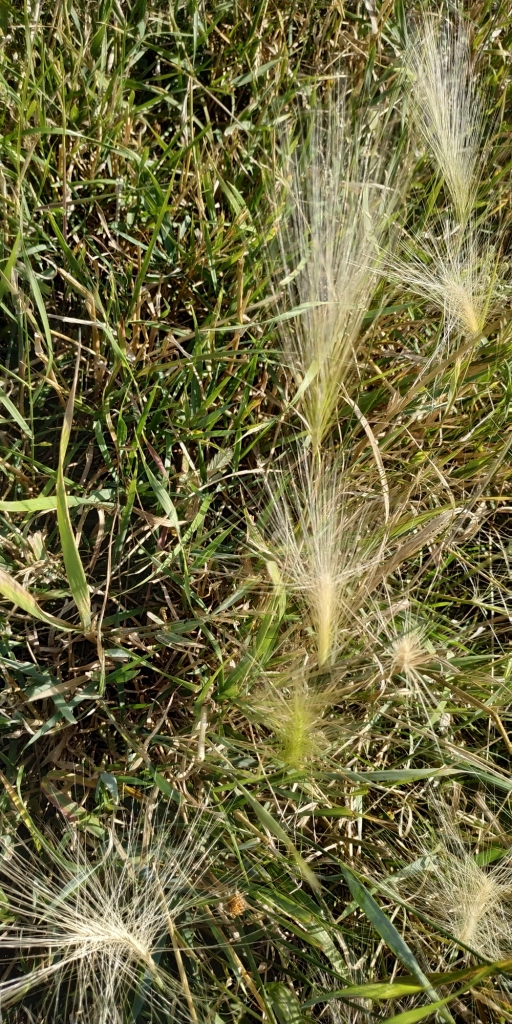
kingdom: Plantae
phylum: Tracheophyta
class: Liliopsida
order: Poales
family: Poaceae
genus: Hordeum
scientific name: Hordeum jubatum
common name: Foxtail barley
